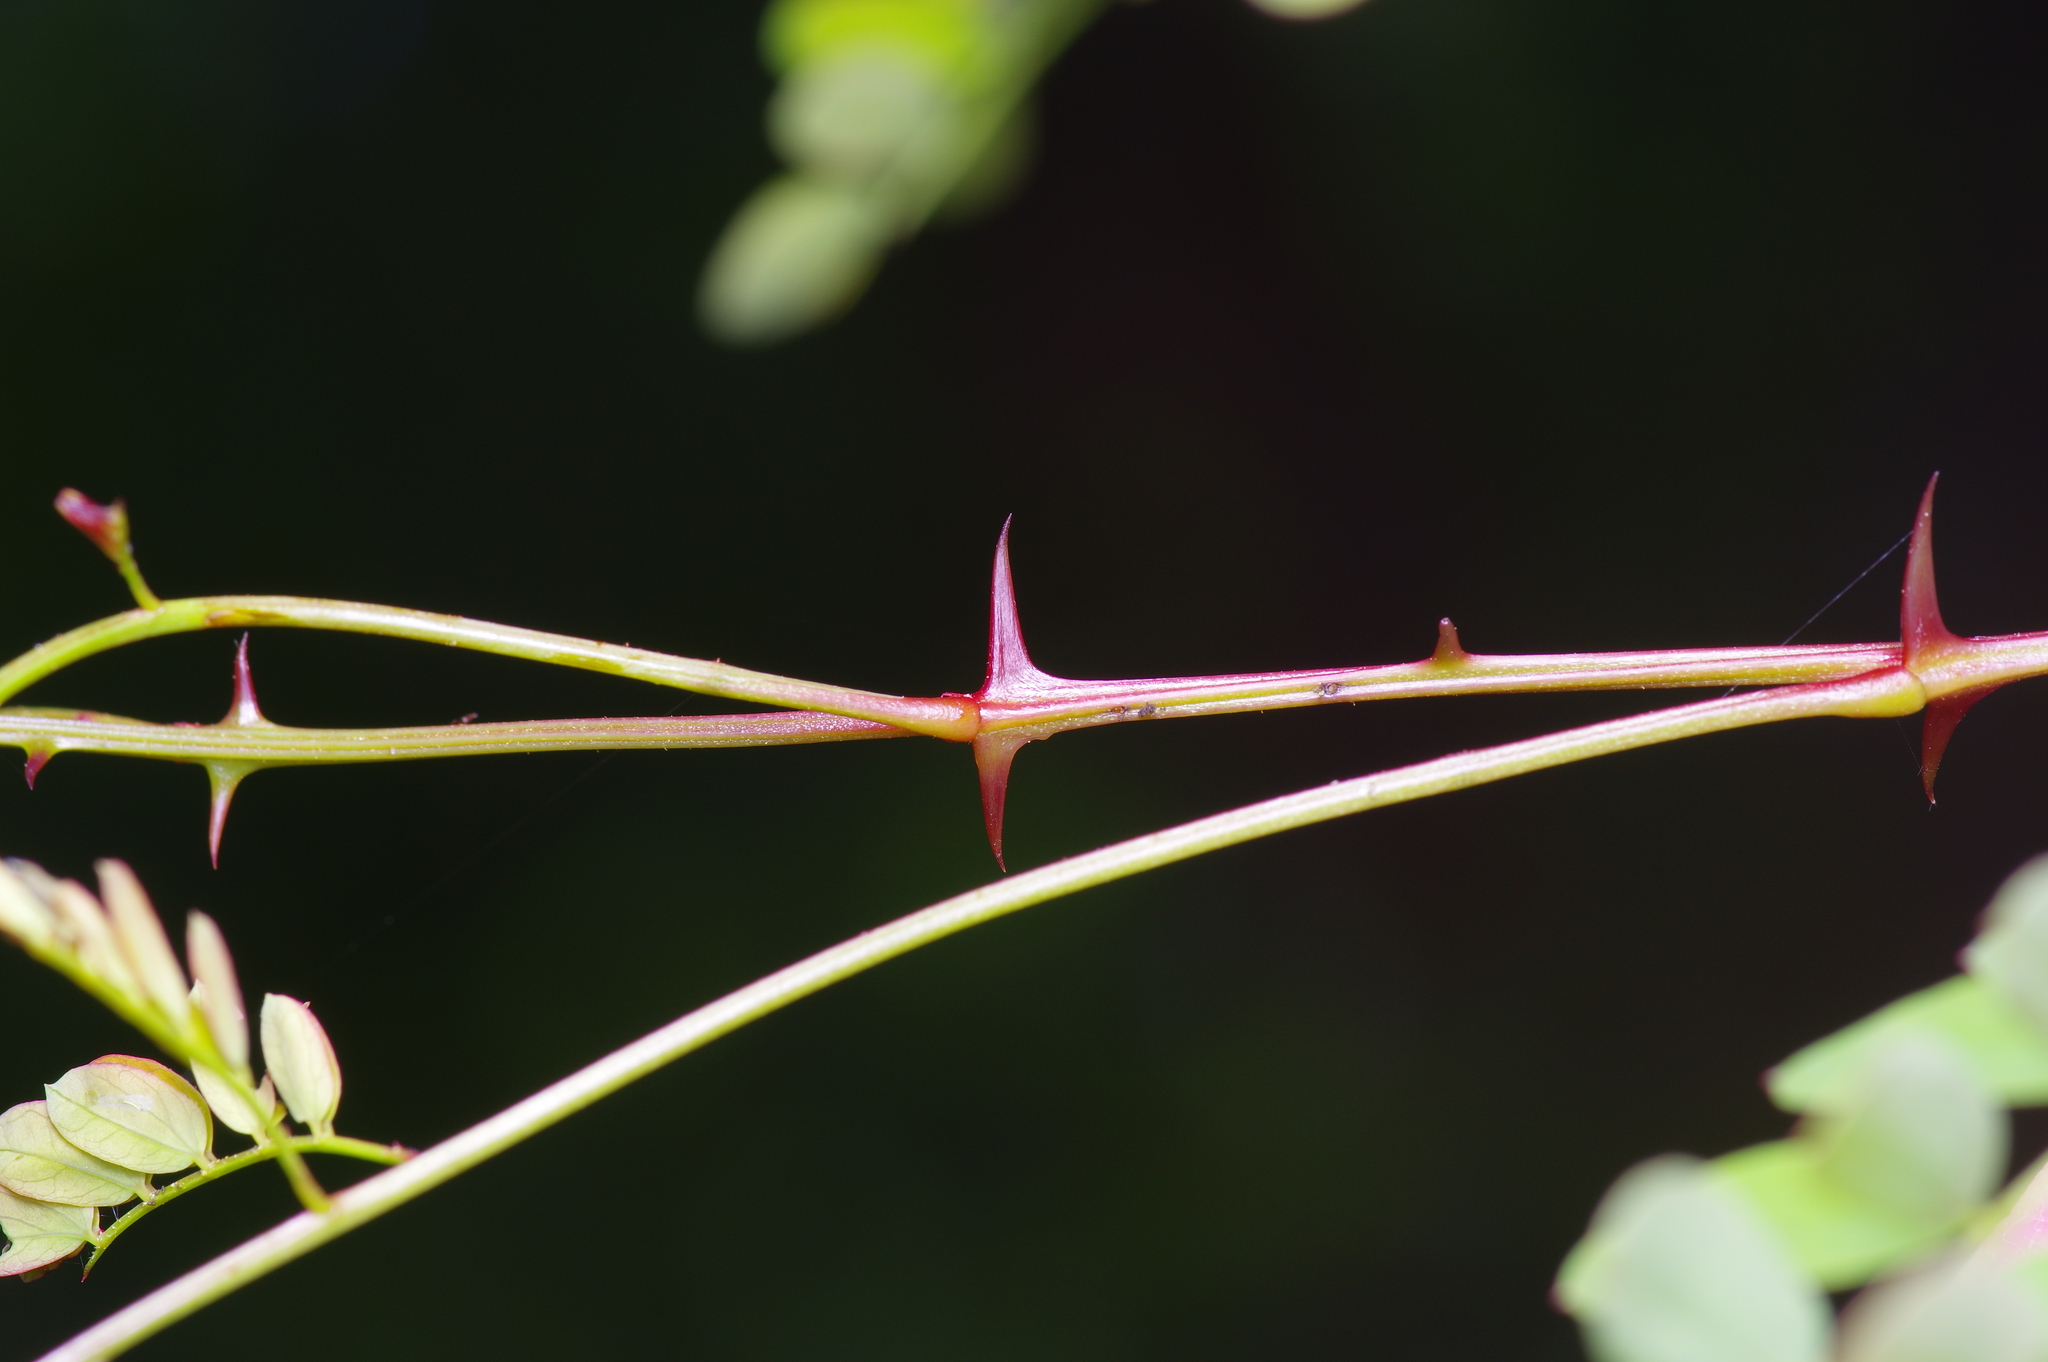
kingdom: Plantae
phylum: Tracheophyta
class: Magnoliopsida
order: Fabales
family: Fabaceae
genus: Senegalia
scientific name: Senegalia roemeriana
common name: Roemer's acacia
